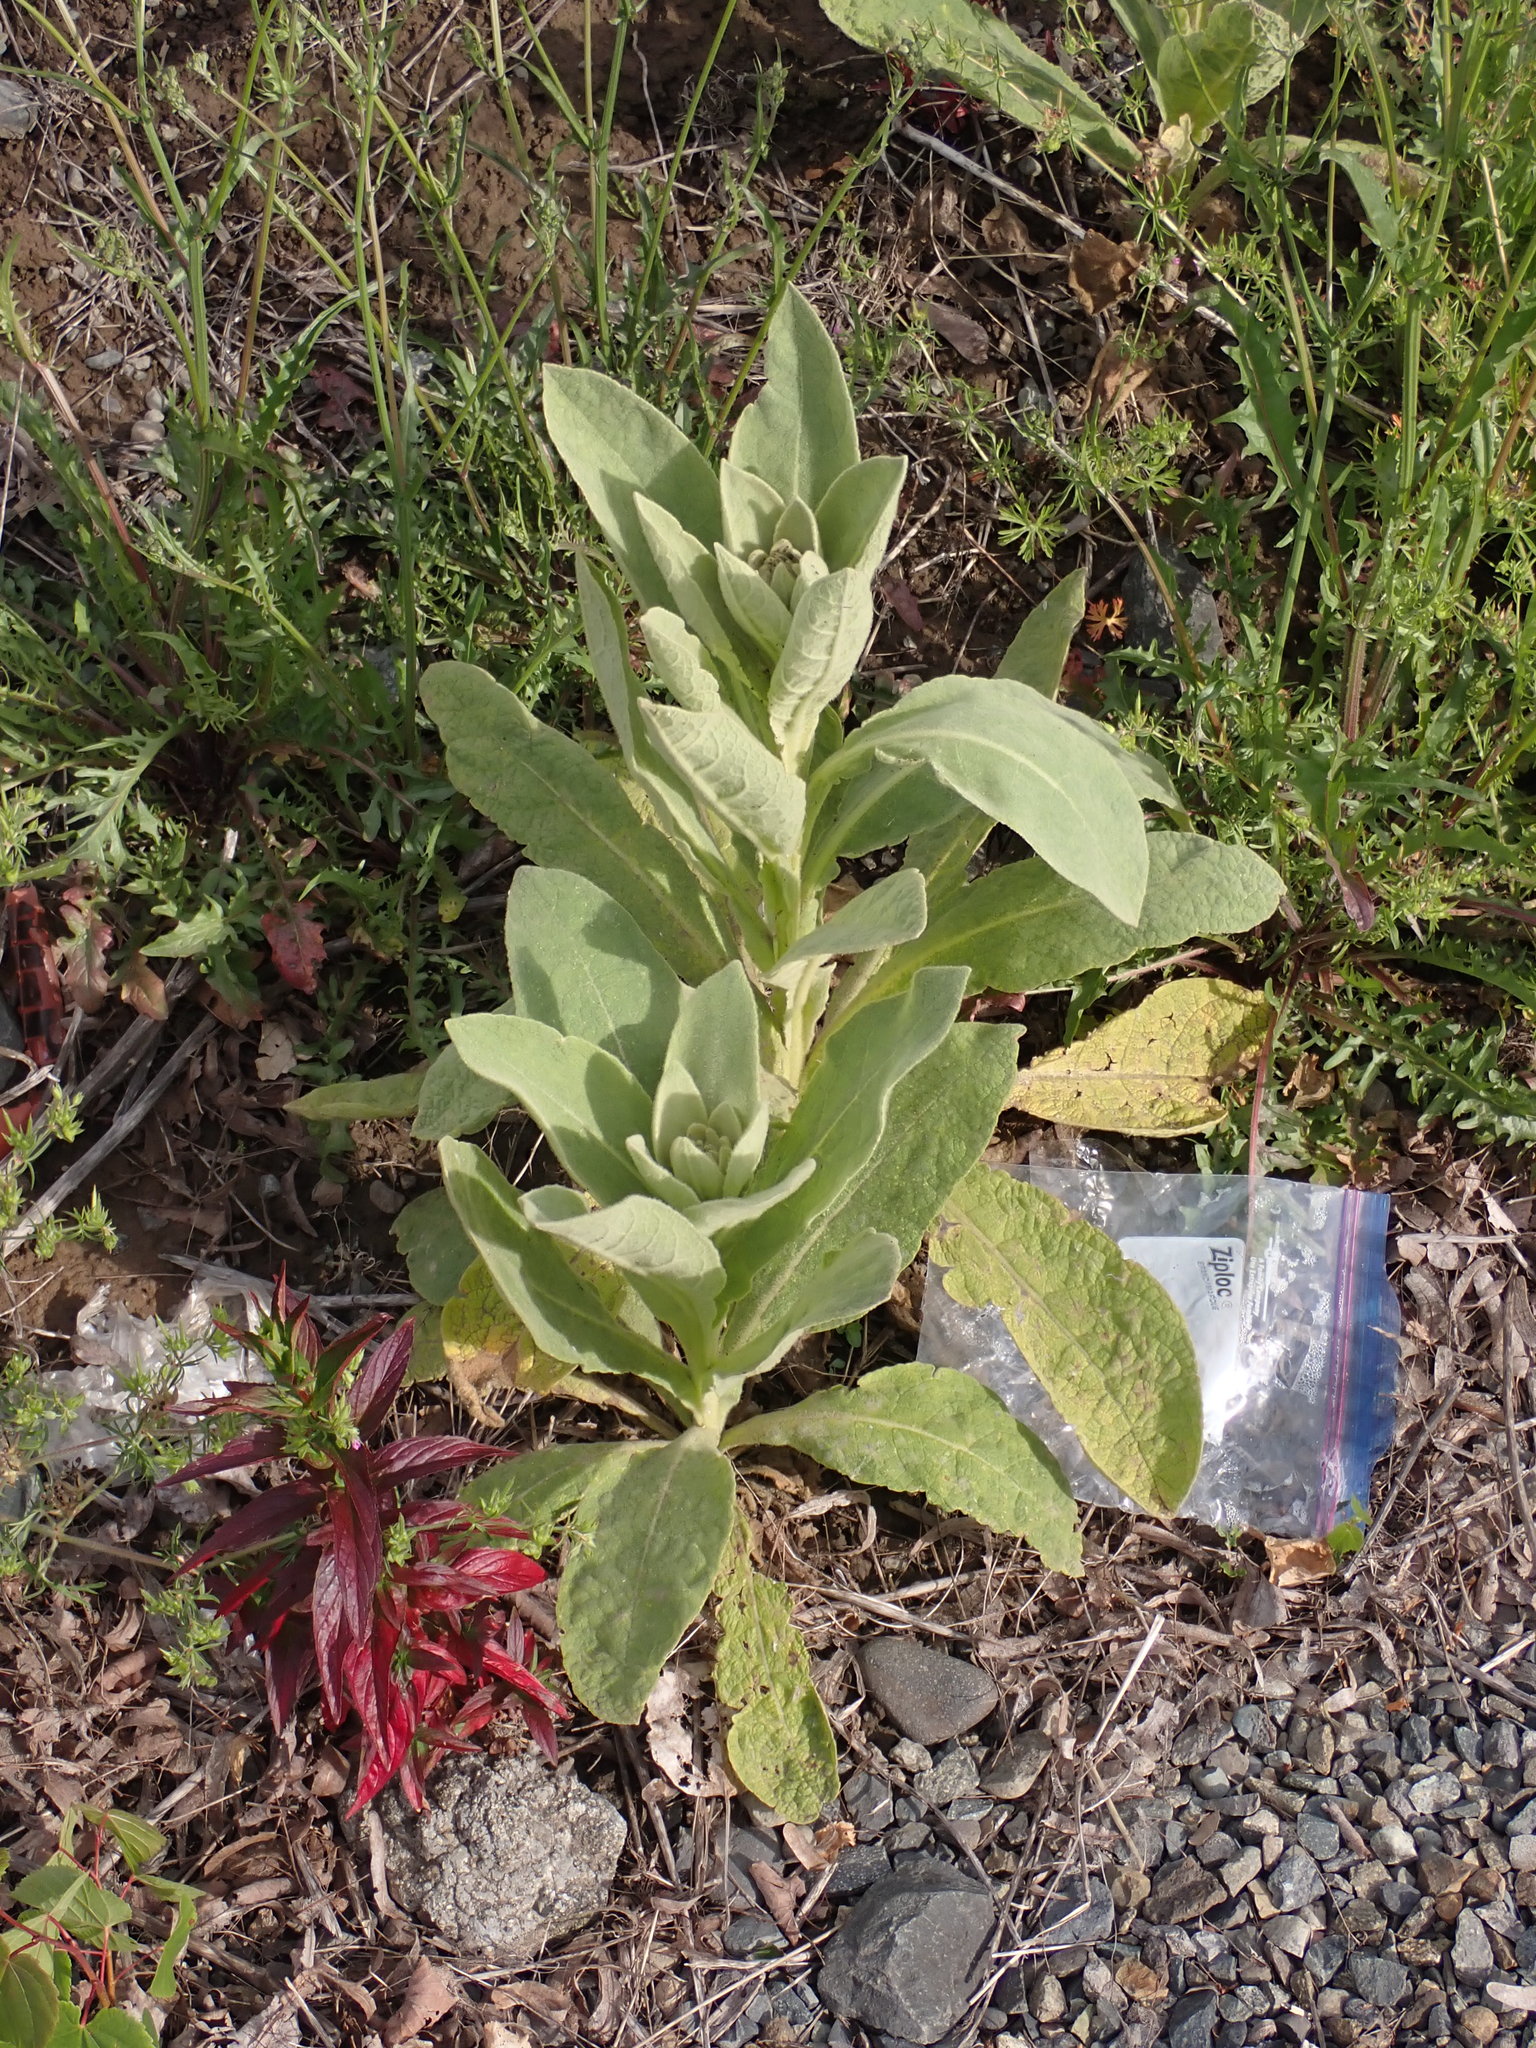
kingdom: Plantae
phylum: Tracheophyta
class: Magnoliopsida
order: Lamiales
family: Scrophulariaceae
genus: Verbascum
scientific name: Verbascum thapsus
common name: Common mullein
